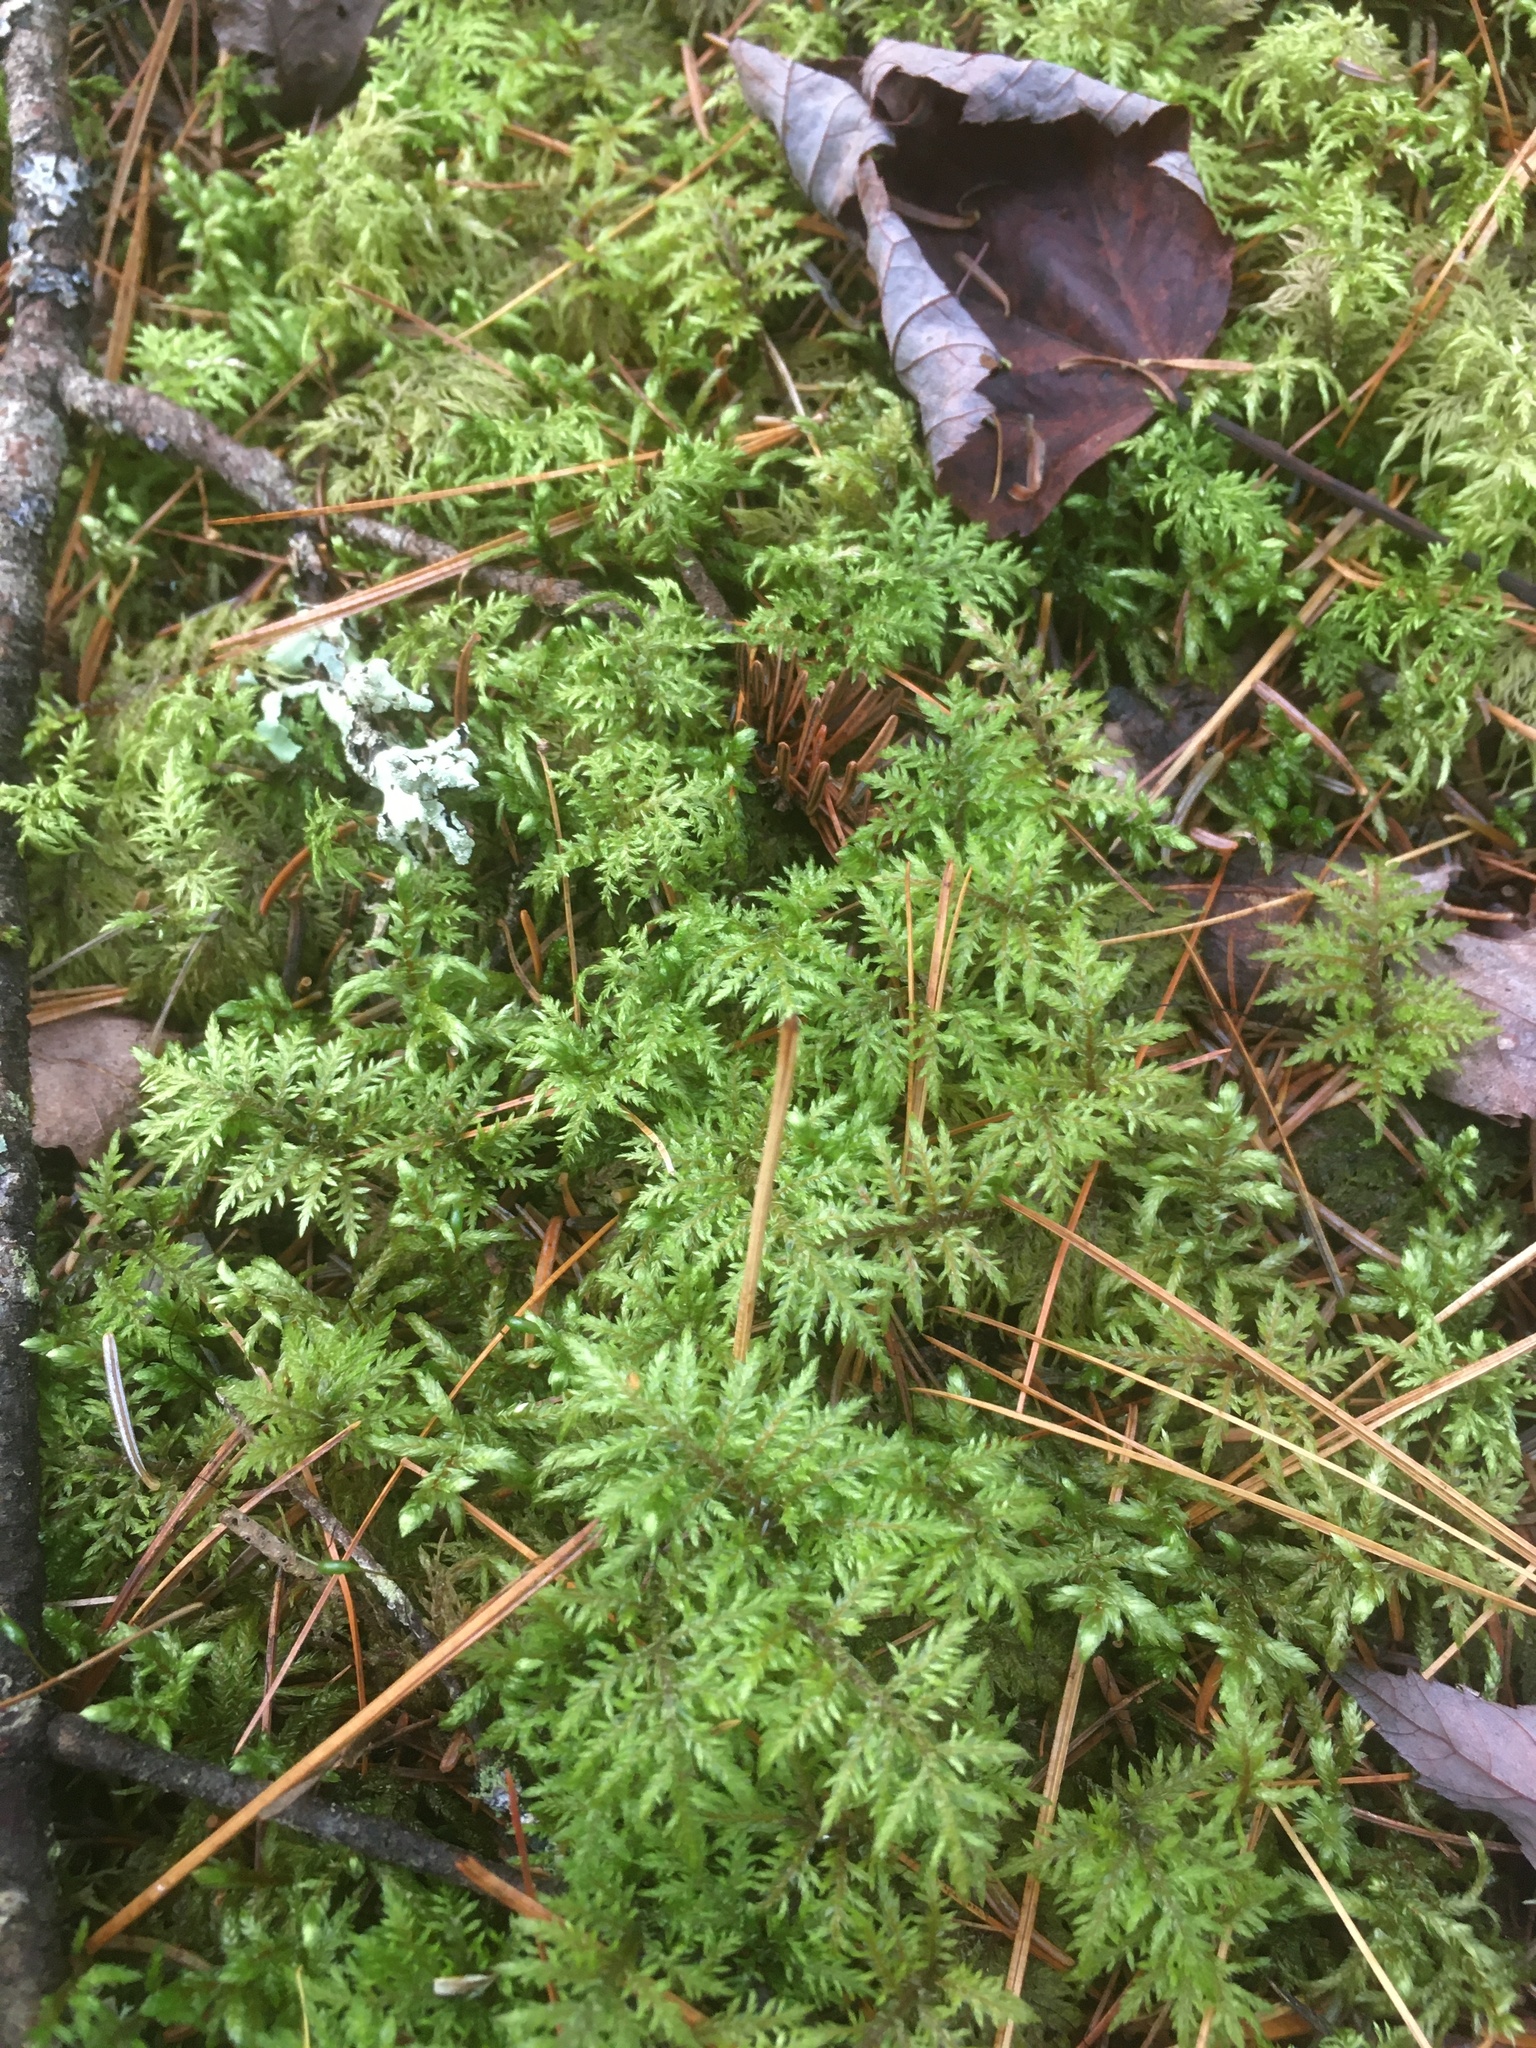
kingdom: Plantae
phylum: Bryophyta
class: Bryopsida
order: Hypnales
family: Hylocomiaceae
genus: Hylocomium
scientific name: Hylocomium splendens
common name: Stairstep moss
